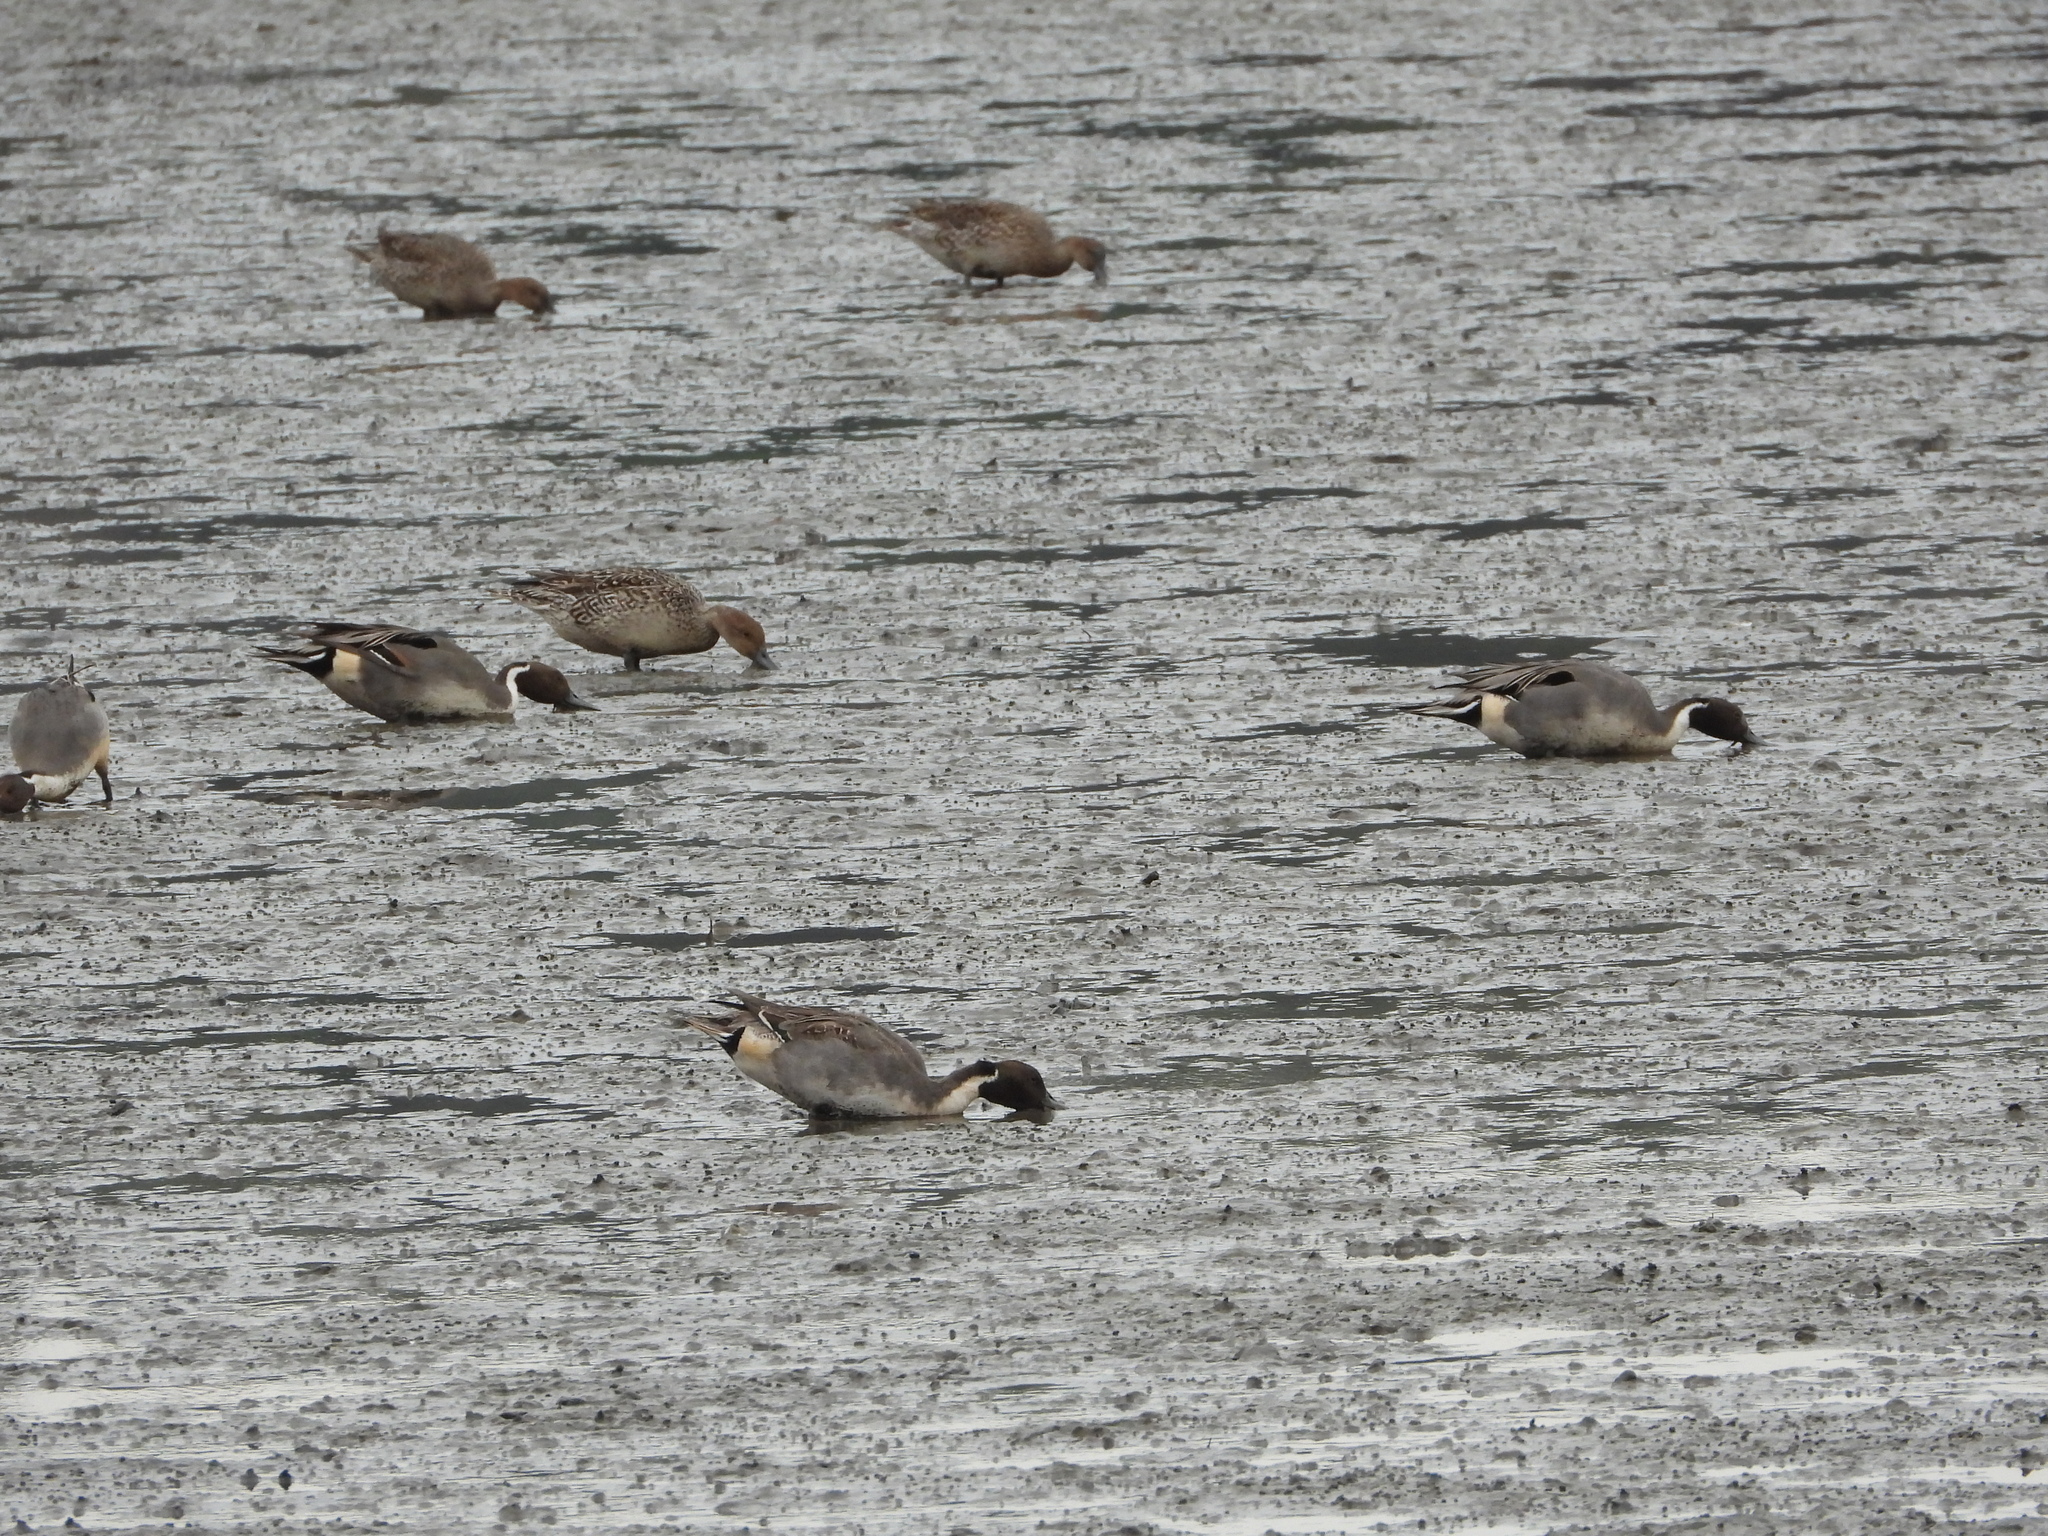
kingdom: Animalia
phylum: Chordata
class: Aves
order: Anseriformes
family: Anatidae
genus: Anas
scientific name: Anas acuta
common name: Northern pintail
